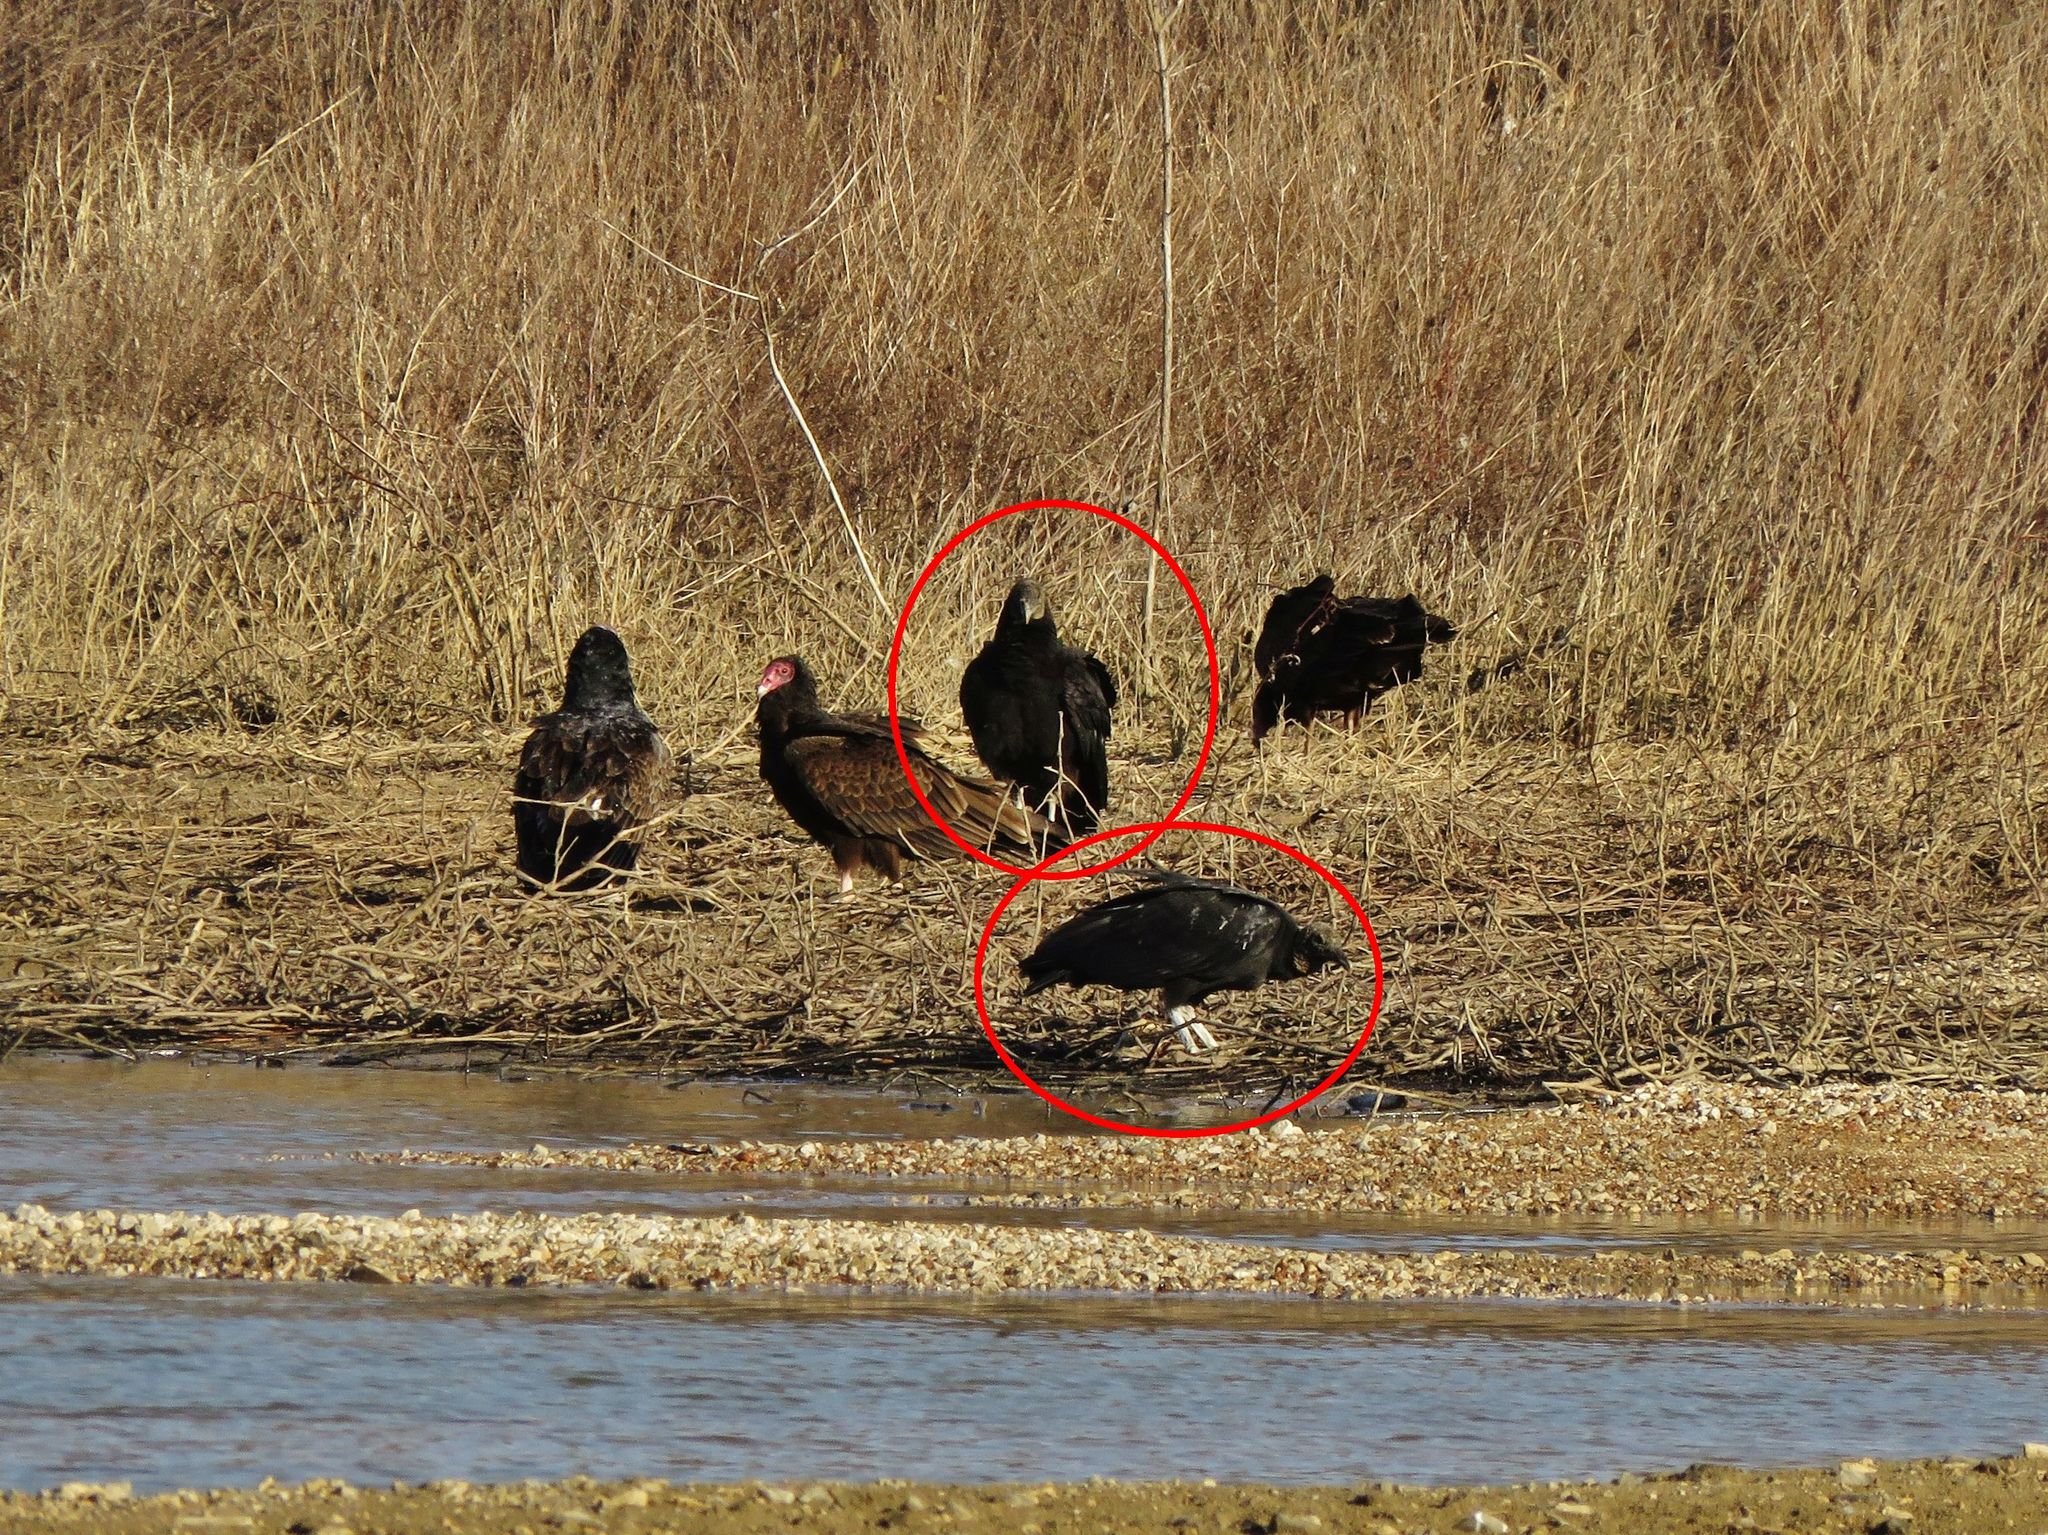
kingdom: Animalia
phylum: Chordata
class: Aves
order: Accipitriformes
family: Cathartidae
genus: Coragyps
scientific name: Coragyps atratus
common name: Black vulture
